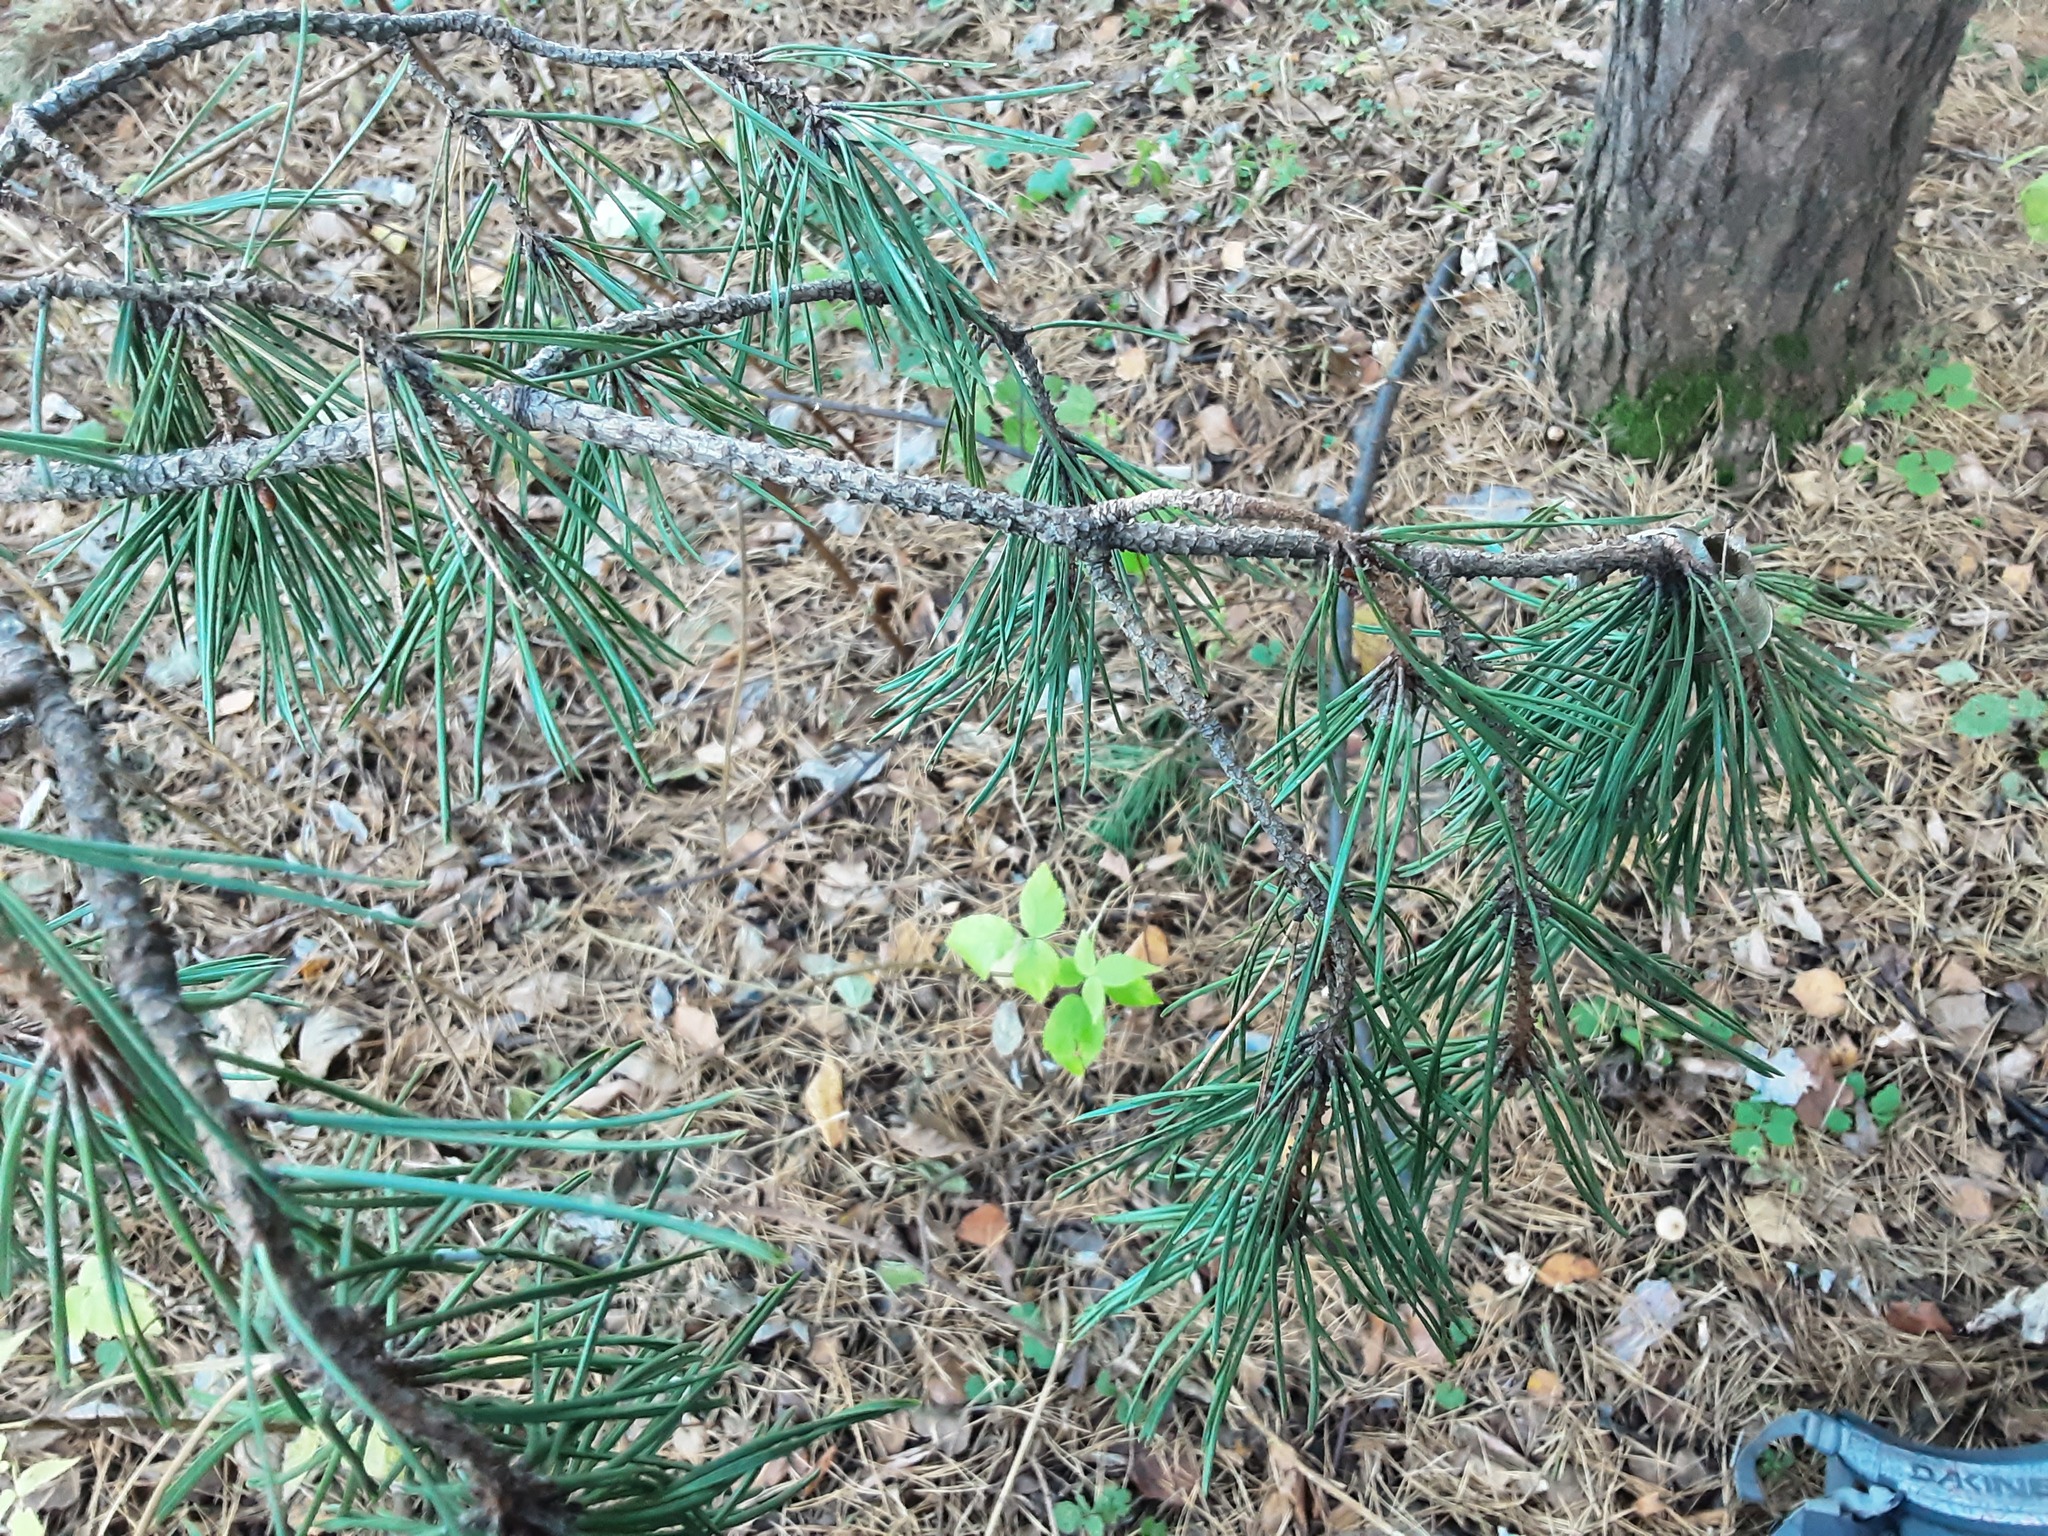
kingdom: Plantae
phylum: Tracheophyta
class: Pinopsida
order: Pinales
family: Pinaceae
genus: Pinus
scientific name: Pinus sylvestris
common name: Scots pine
